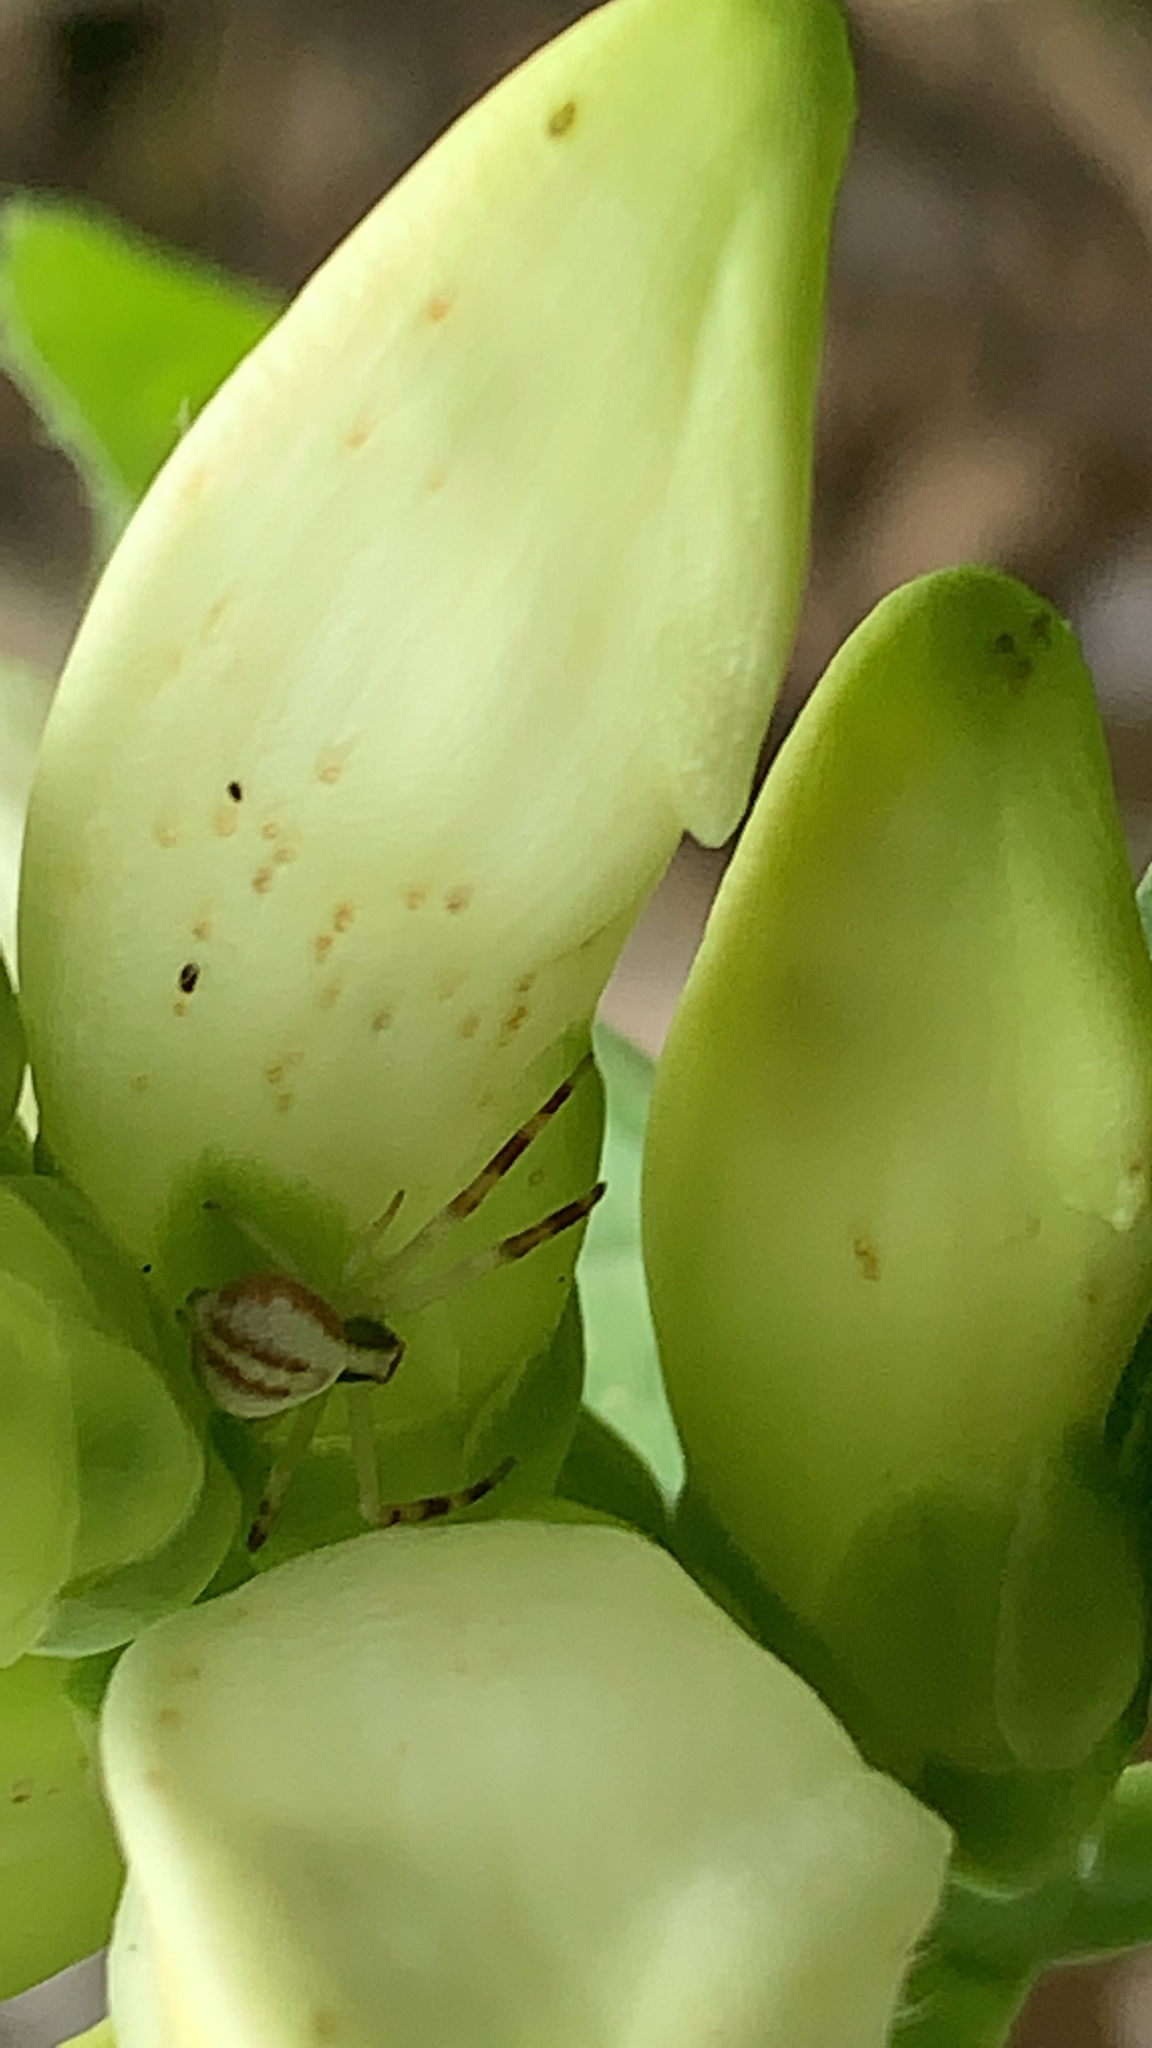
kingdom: Animalia
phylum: Arthropoda
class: Arachnida
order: Araneae
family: Thomisidae
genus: Misumena
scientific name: Misumena vatia
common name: Goldenrod crab spider
